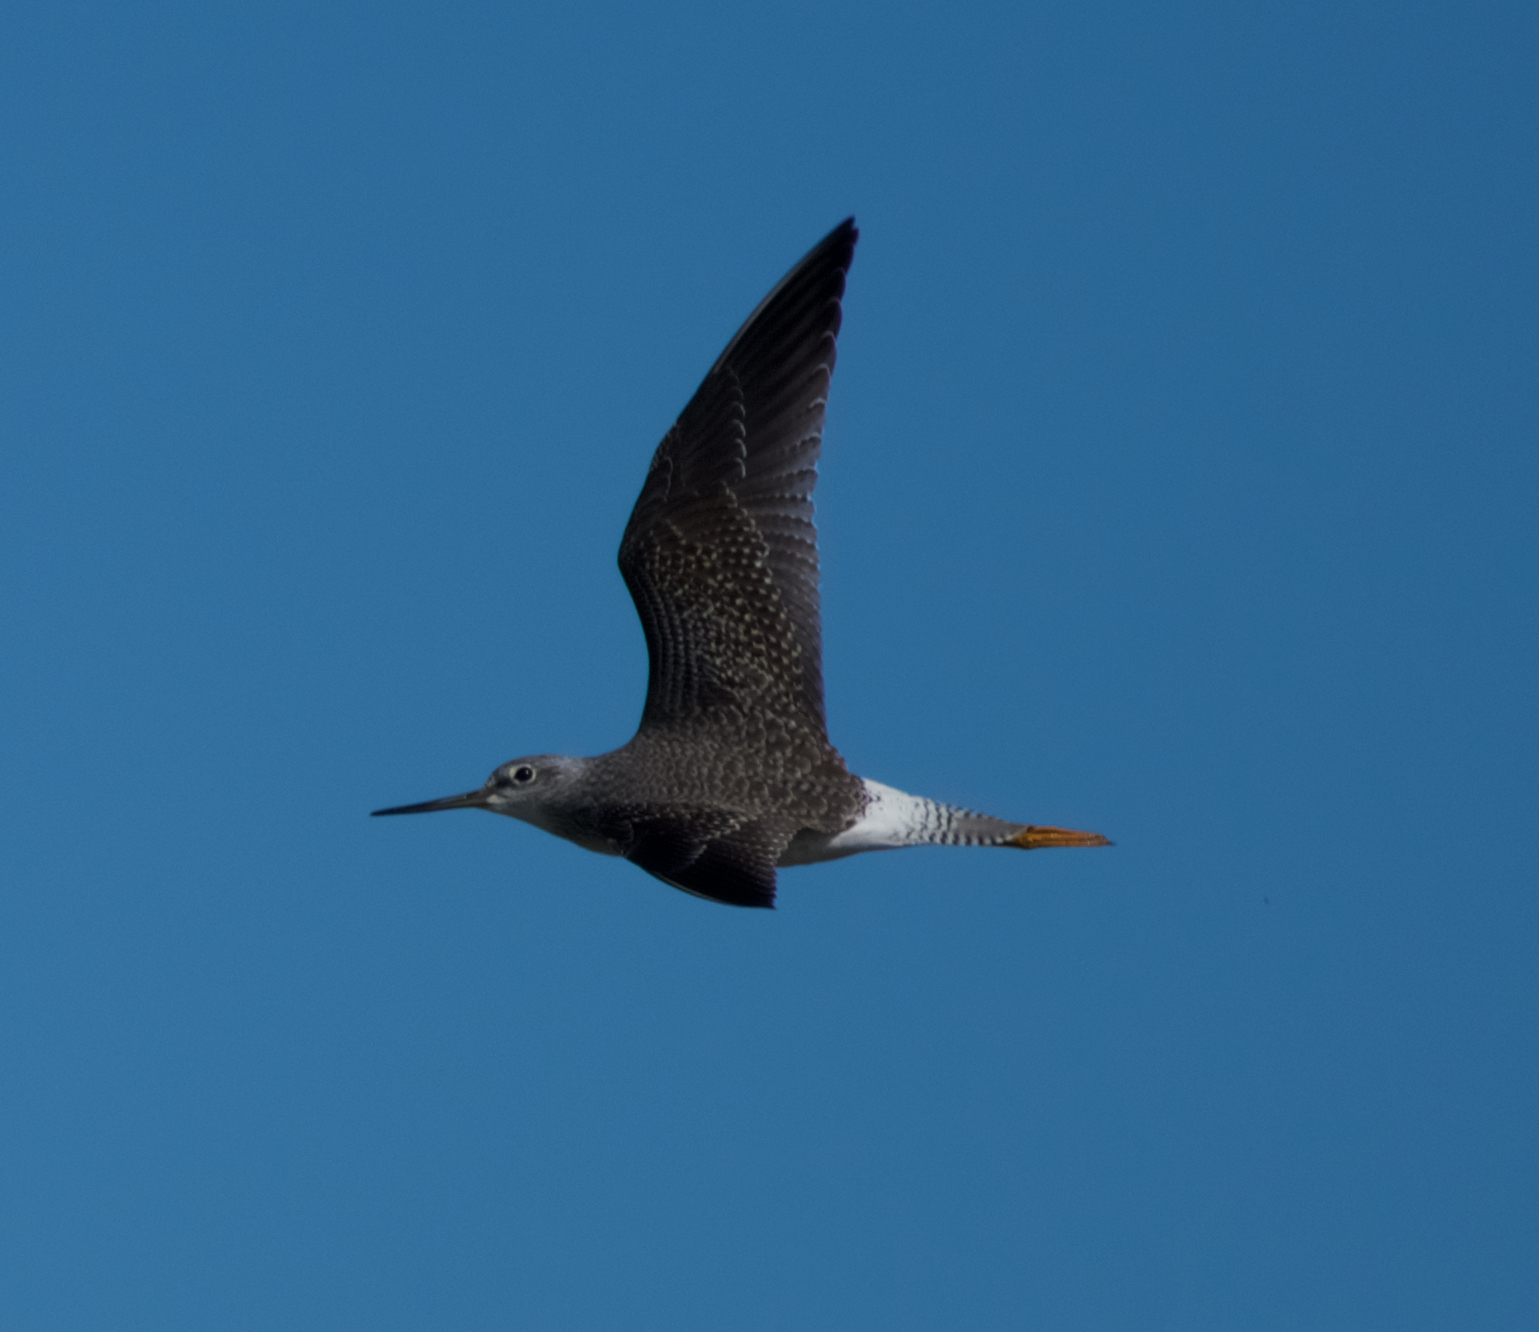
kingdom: Animalia
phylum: Chordata
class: Aves
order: Charadriiformes
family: Scolopacidae
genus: Tringa
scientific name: Tringa melanoleuca
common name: Greater yellowlegs
